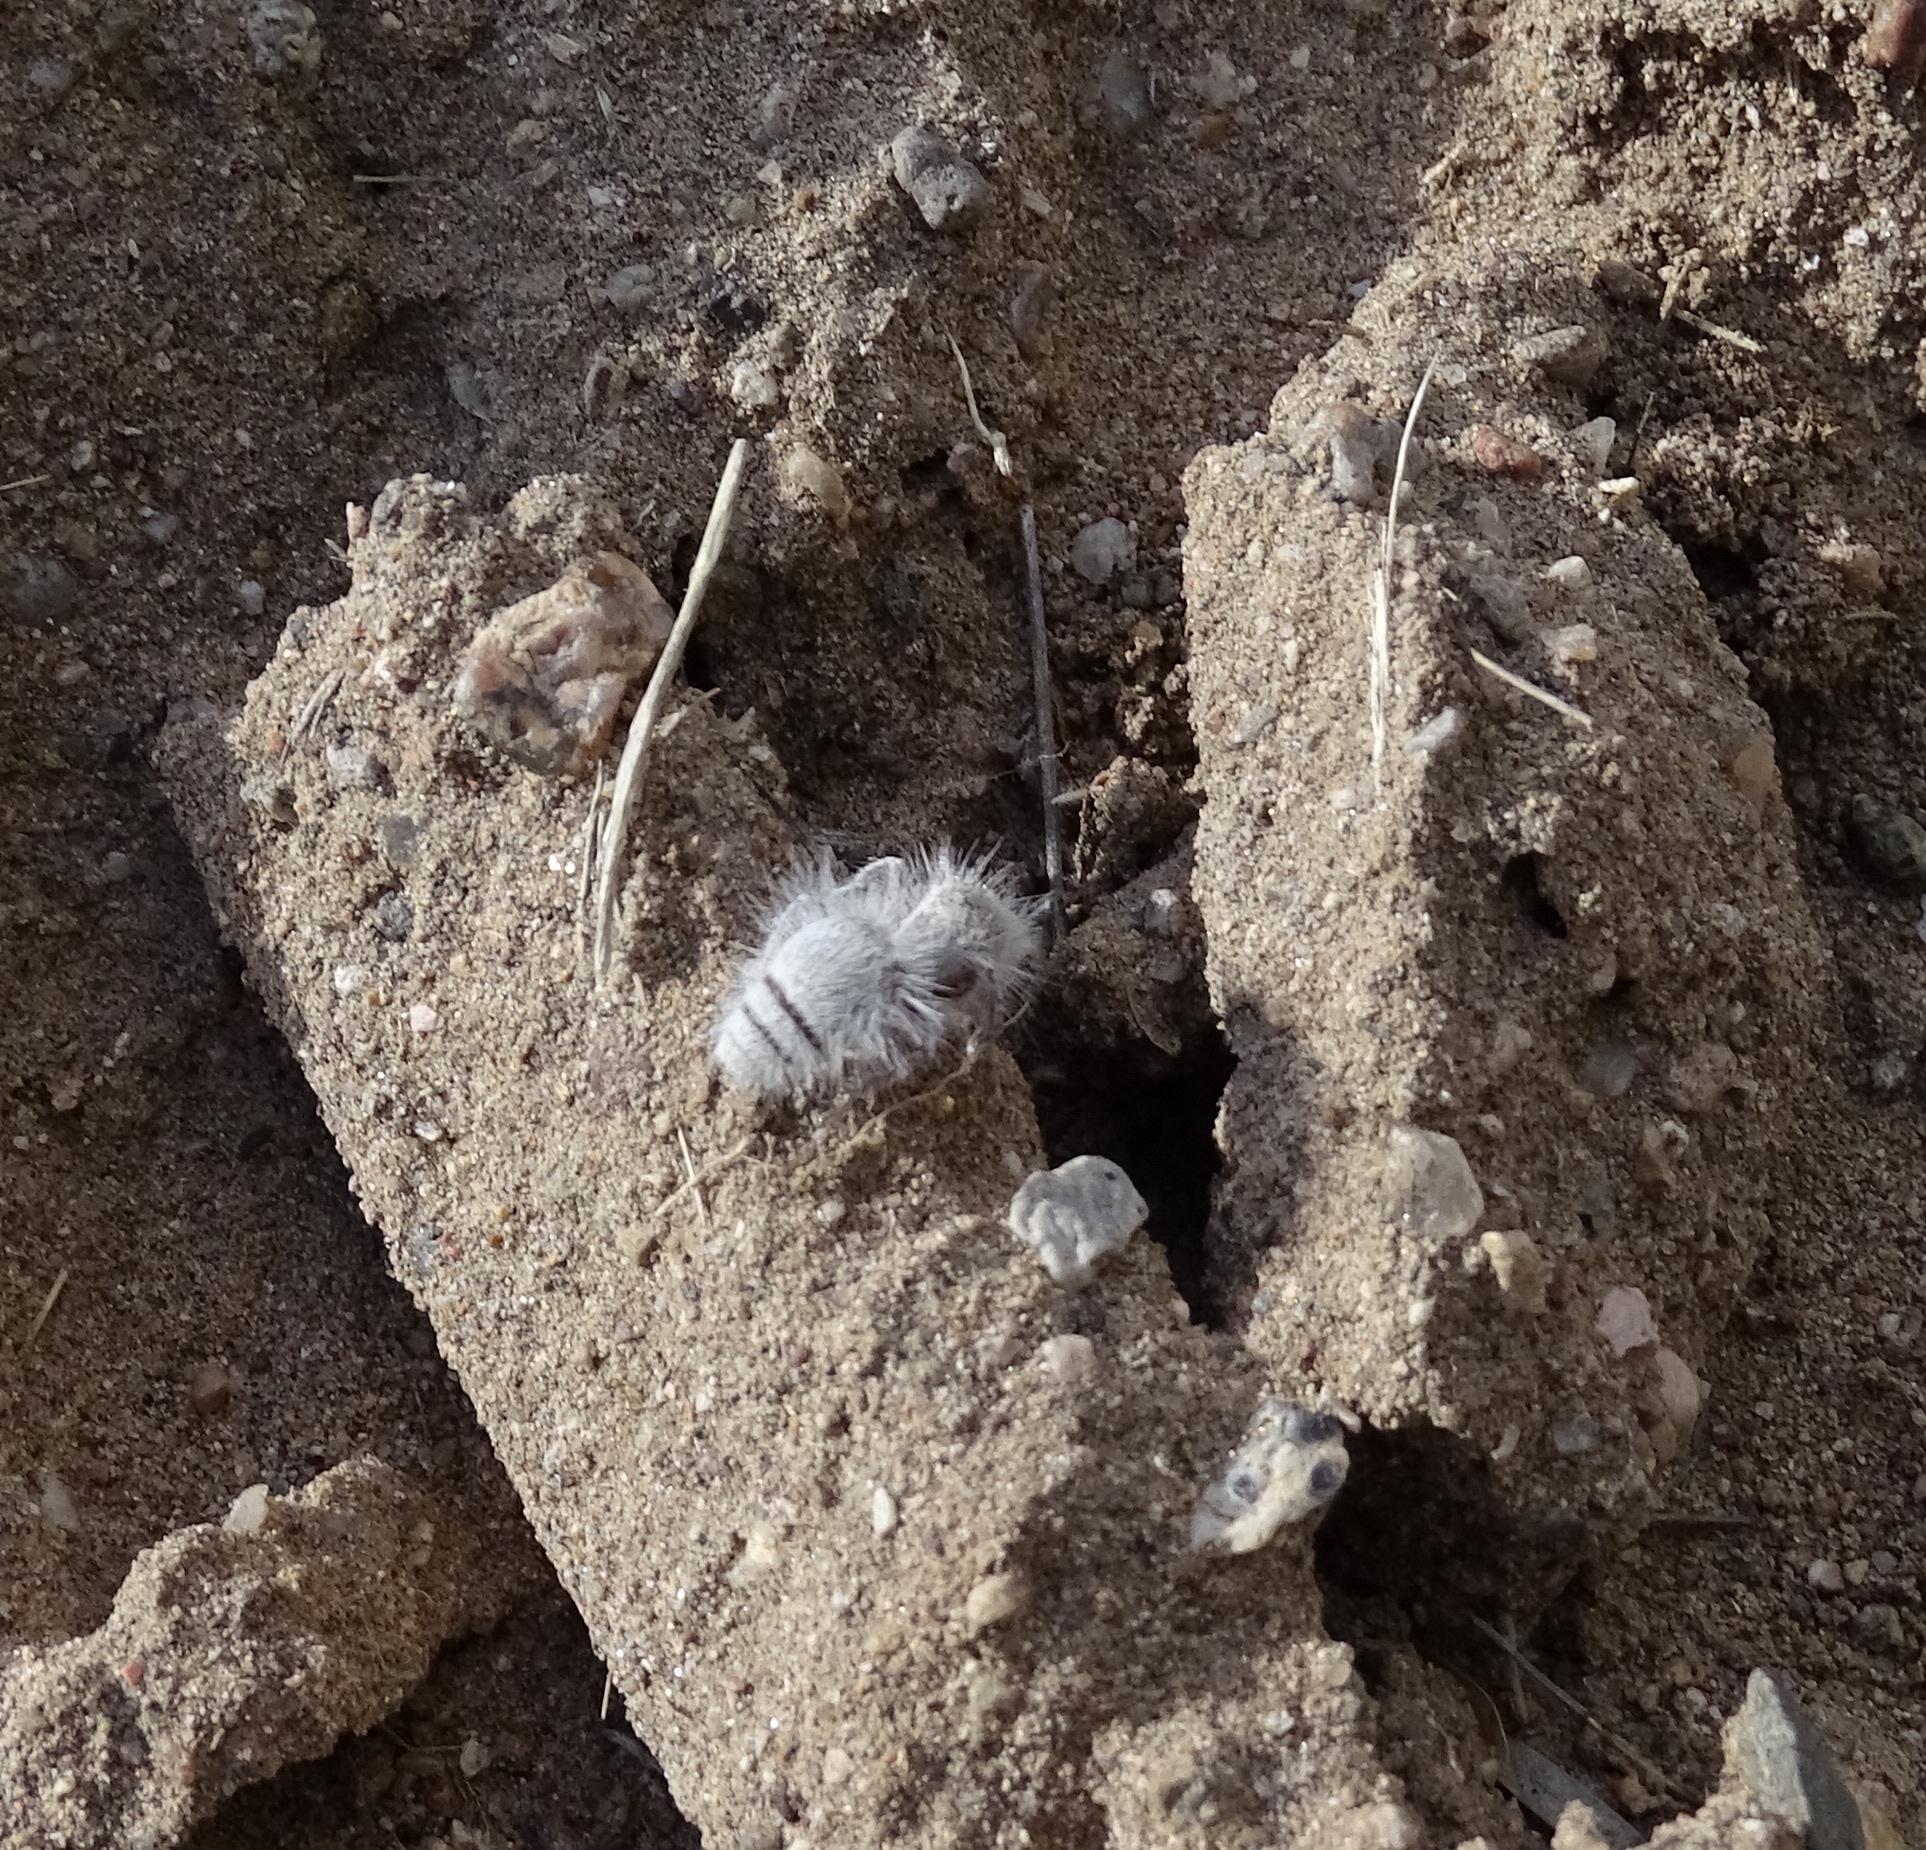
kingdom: Animalia
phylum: Arthropoda
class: Insecta
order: Hymenoptera
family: Mutillidae
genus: Dasymutilla
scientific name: Dasymutilla gloriosa
